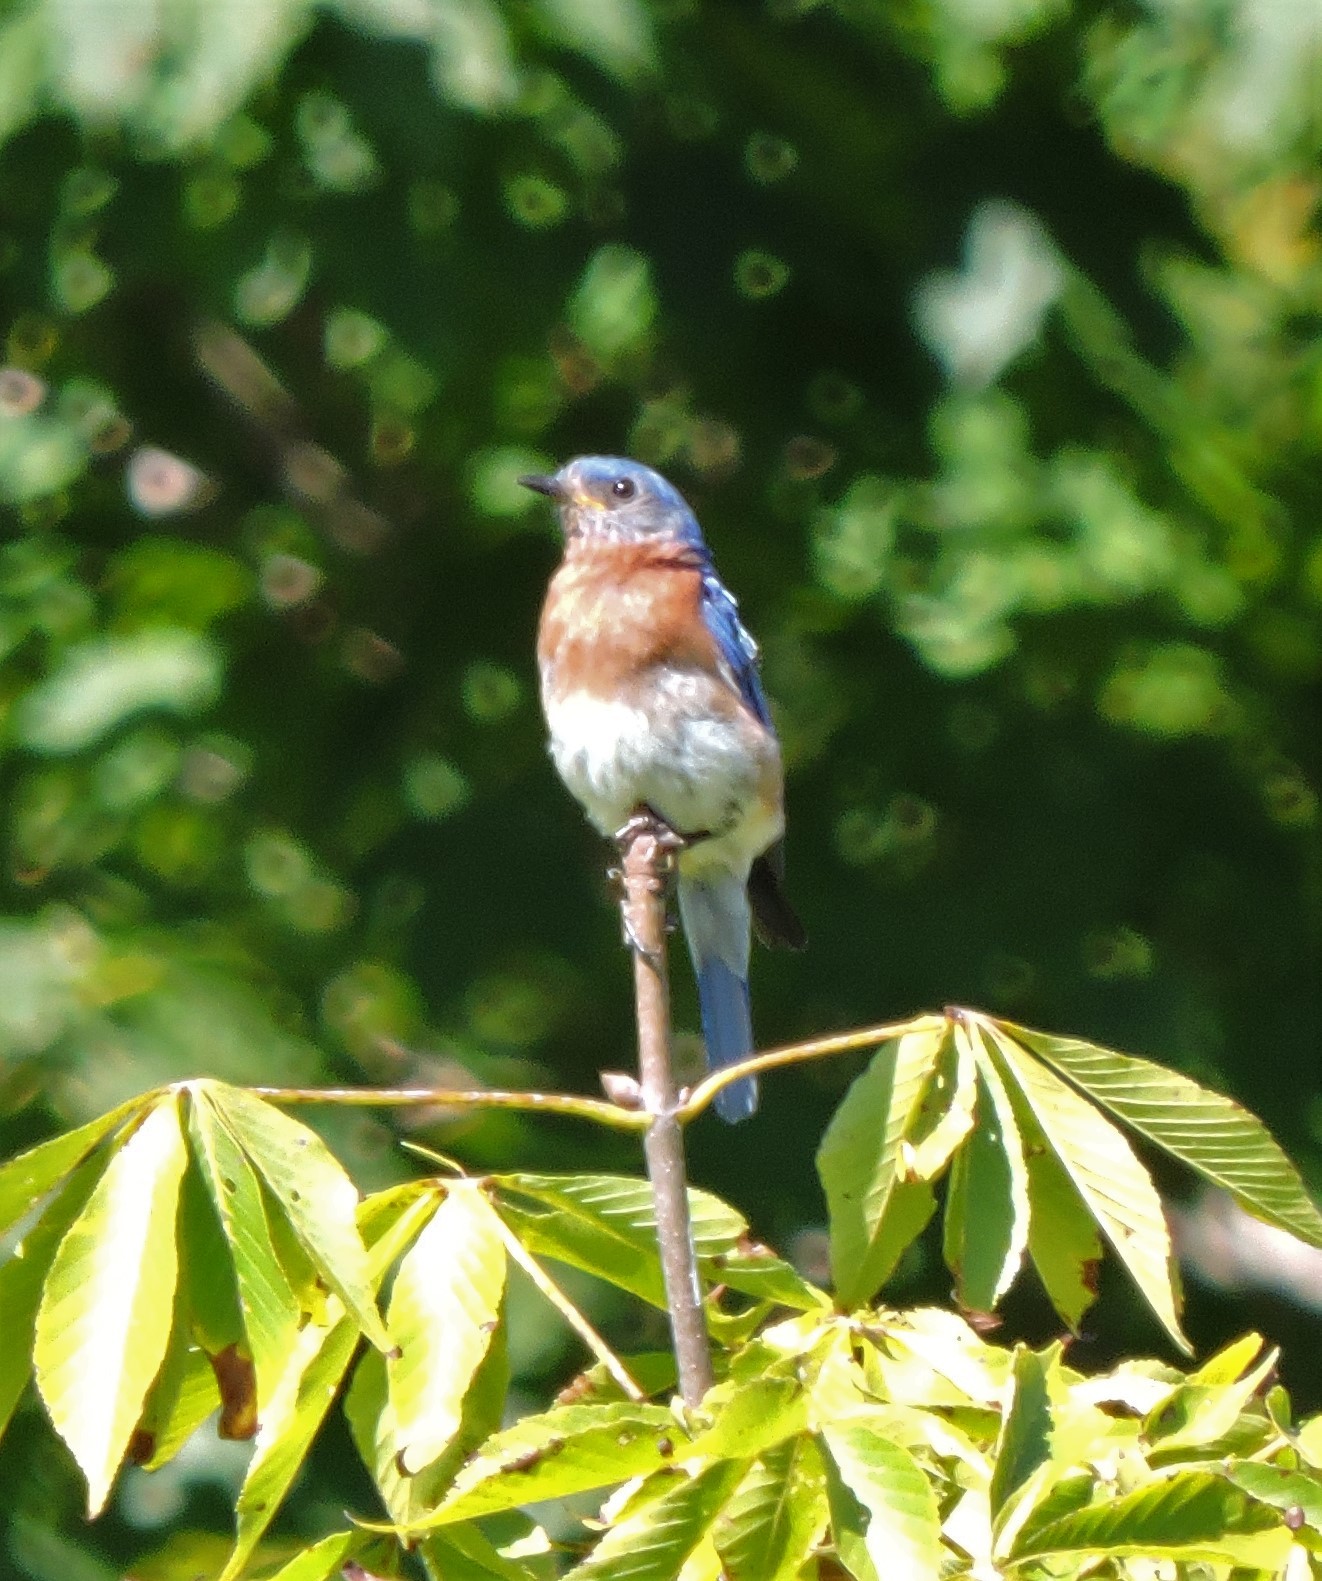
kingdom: Animalia
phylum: Chordata
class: Aves
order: Passeriformes
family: Turdidae
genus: Sialia
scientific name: Sialia sialis
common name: Eastern bluebird
